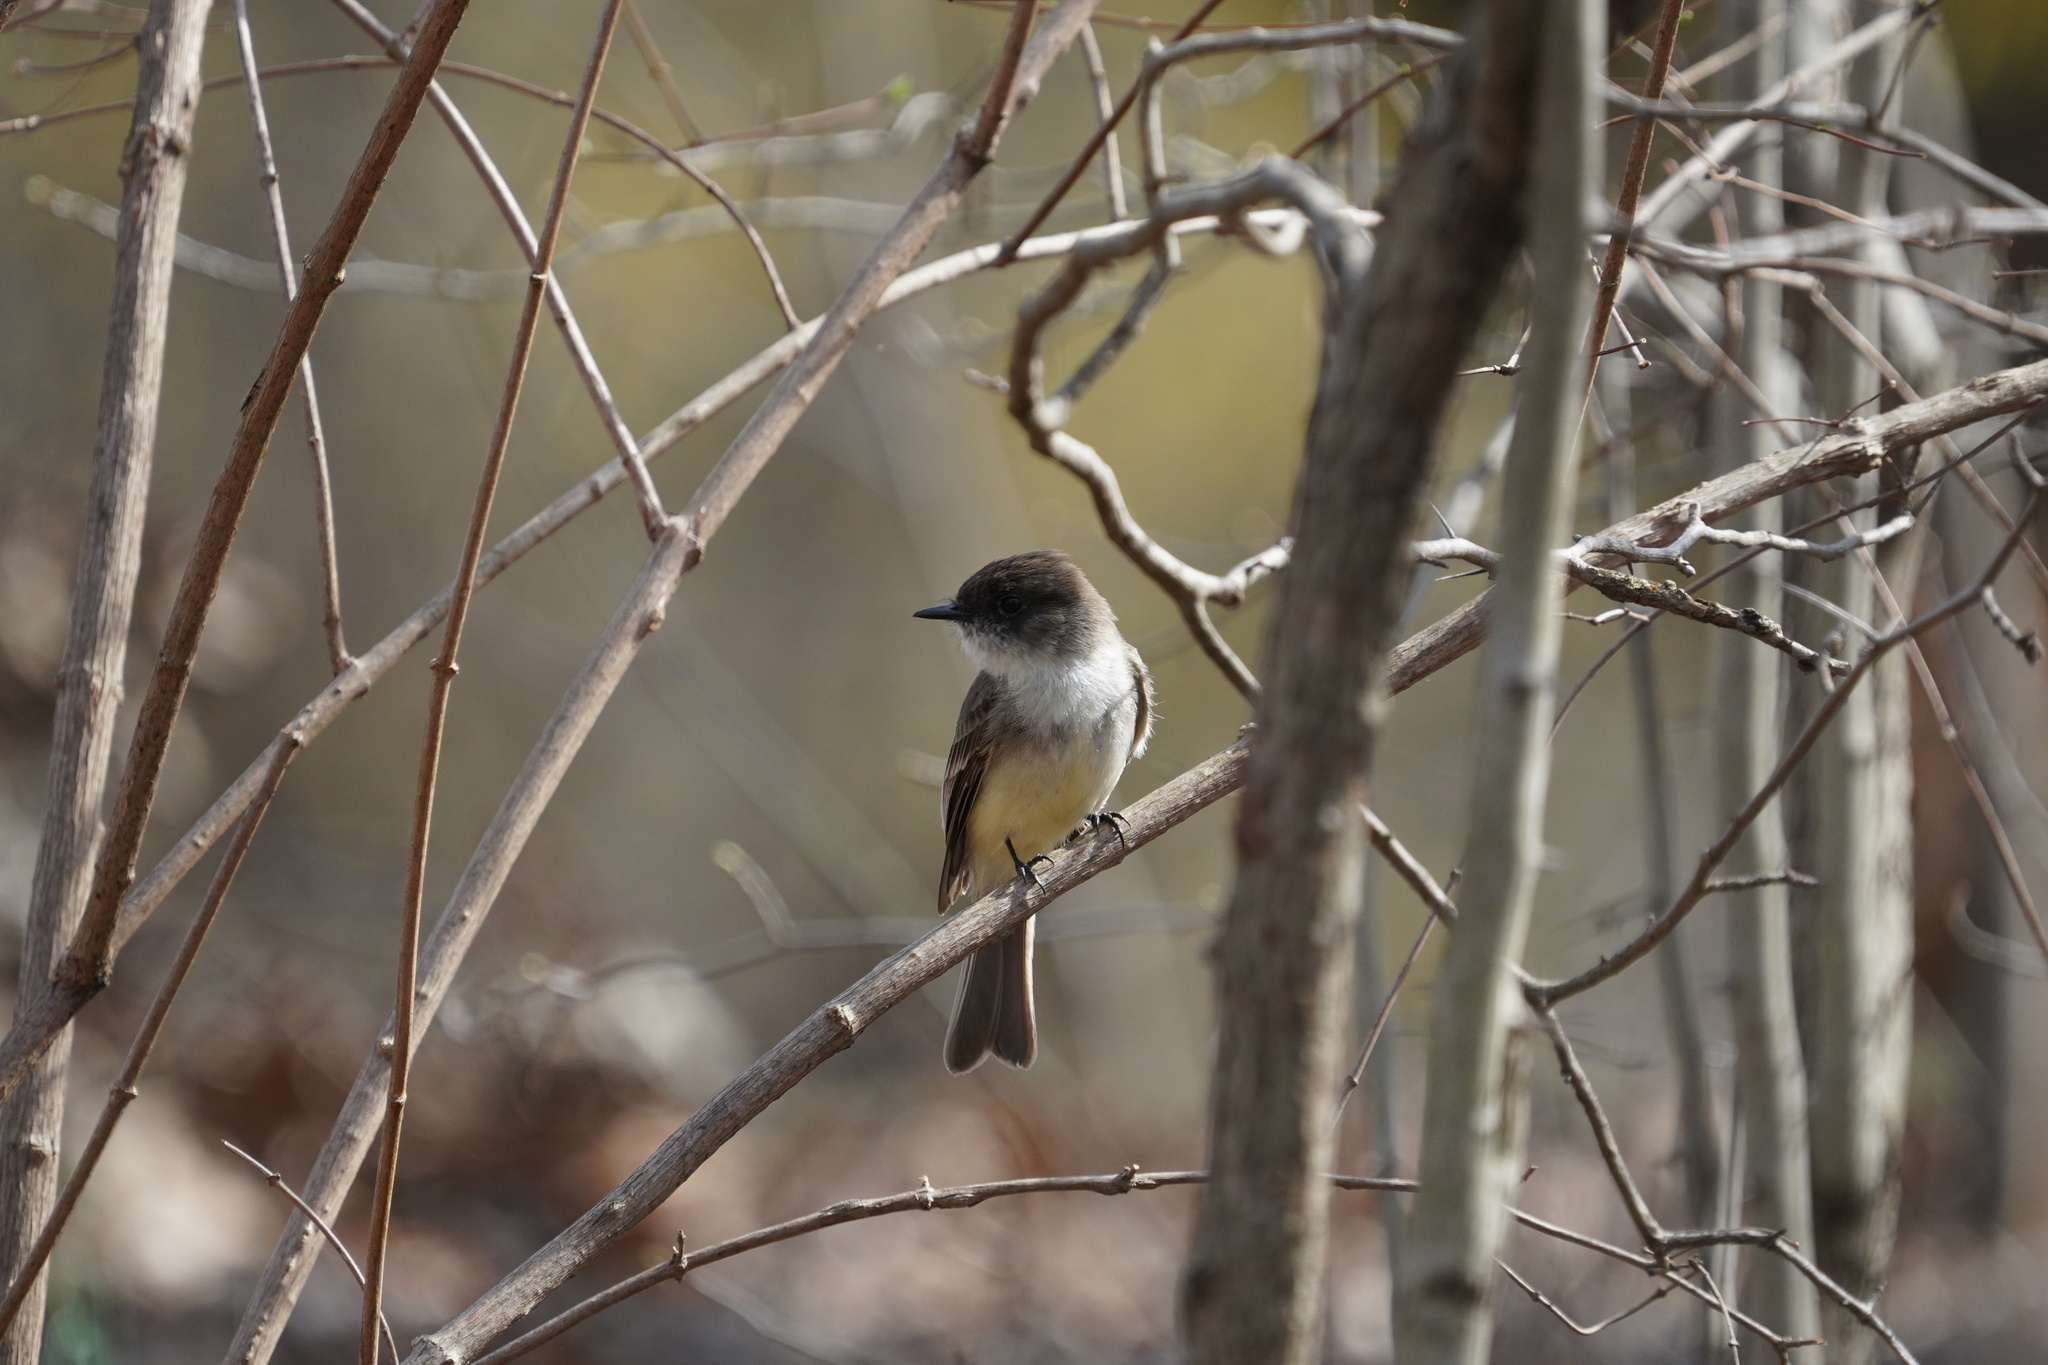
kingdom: Animalia
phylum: Chordata
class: Aves
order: Passeriformes
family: Tyrannidae
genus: Sayornis
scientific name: Sayornis phoebe
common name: Eastern phoebe
